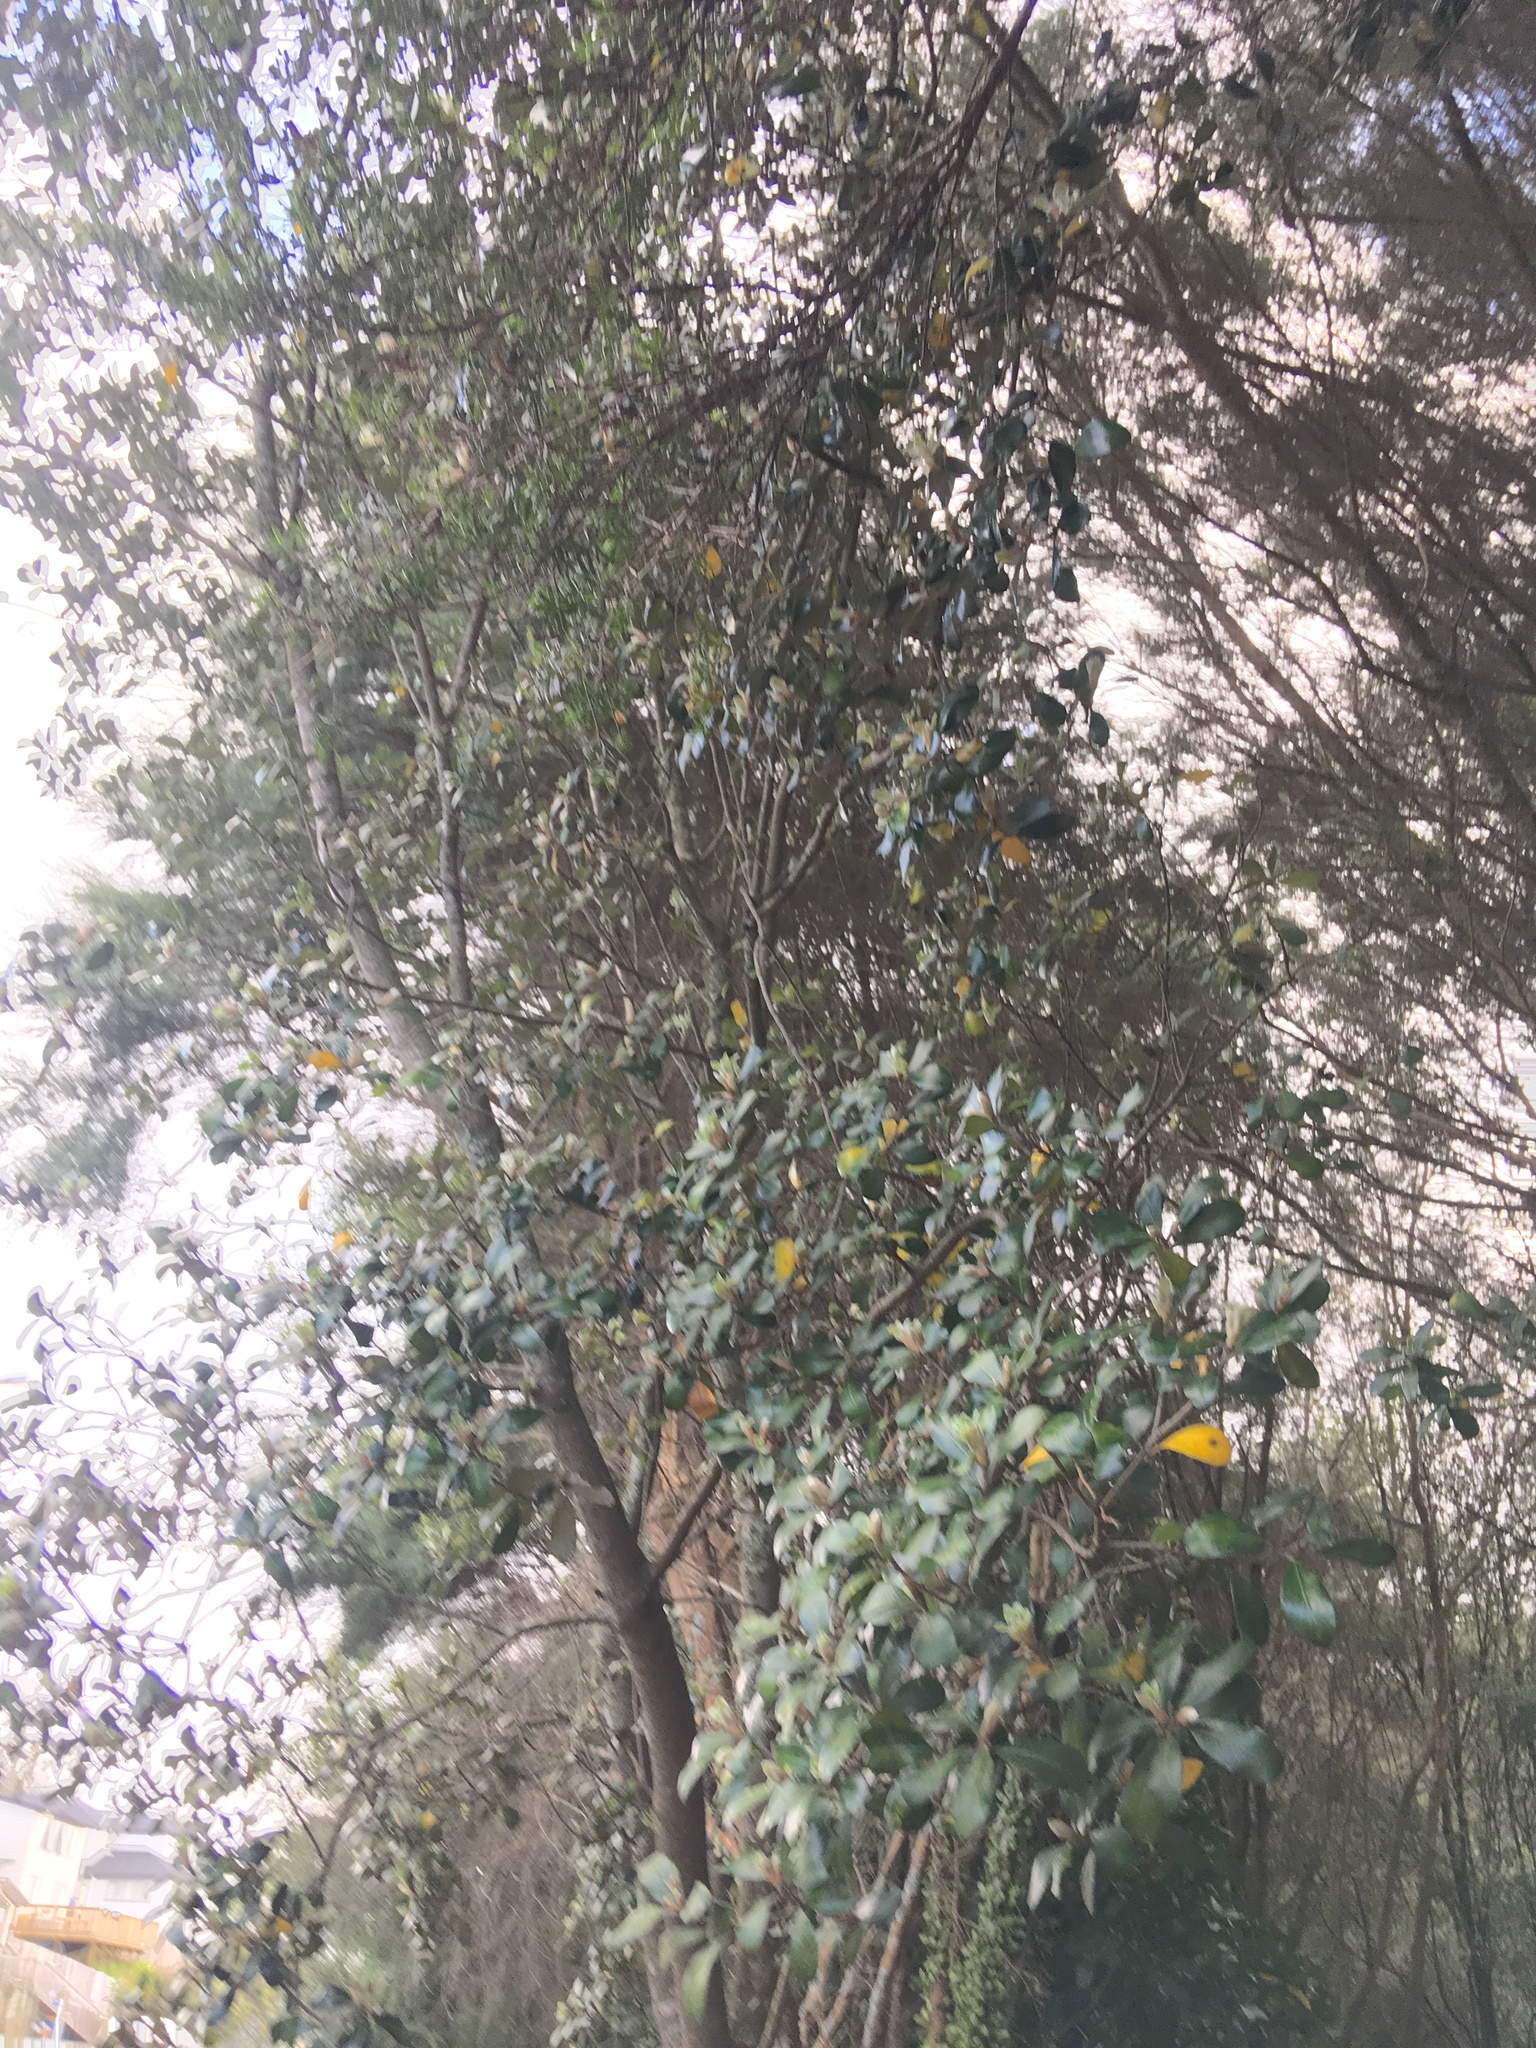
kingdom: Plantae
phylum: Tracheophyta
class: Magnoliopsida
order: Apiales
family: Pittosporaceae
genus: Pittosporum
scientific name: Pittosporum crassifolium
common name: Karo
